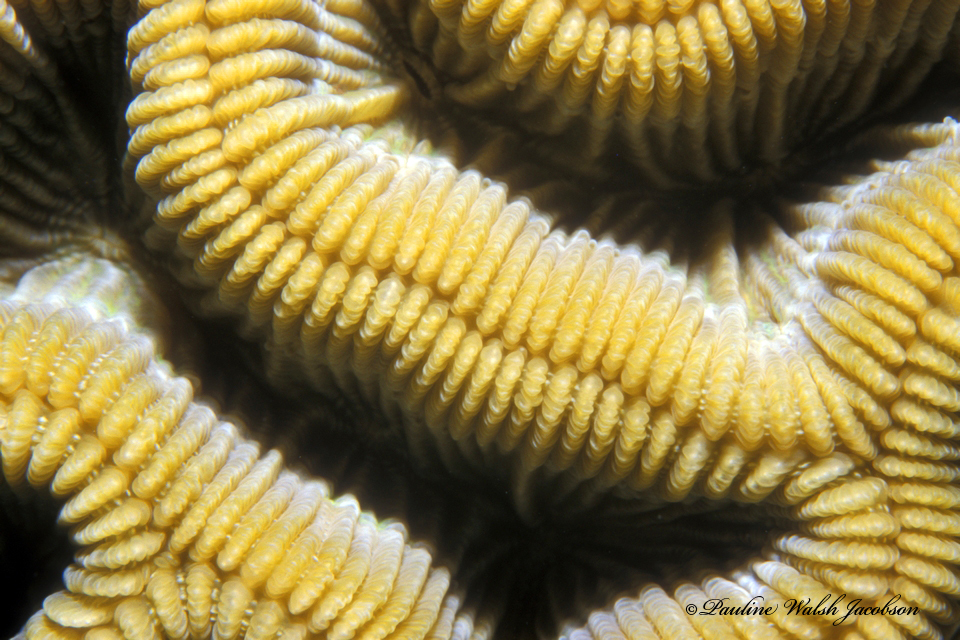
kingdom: Animalia
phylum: Cnidaria
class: Anthozoa
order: Scleractinia
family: Faviidae
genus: Colpophyllia
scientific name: Colpophyllia natans
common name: Boulder brain coral
